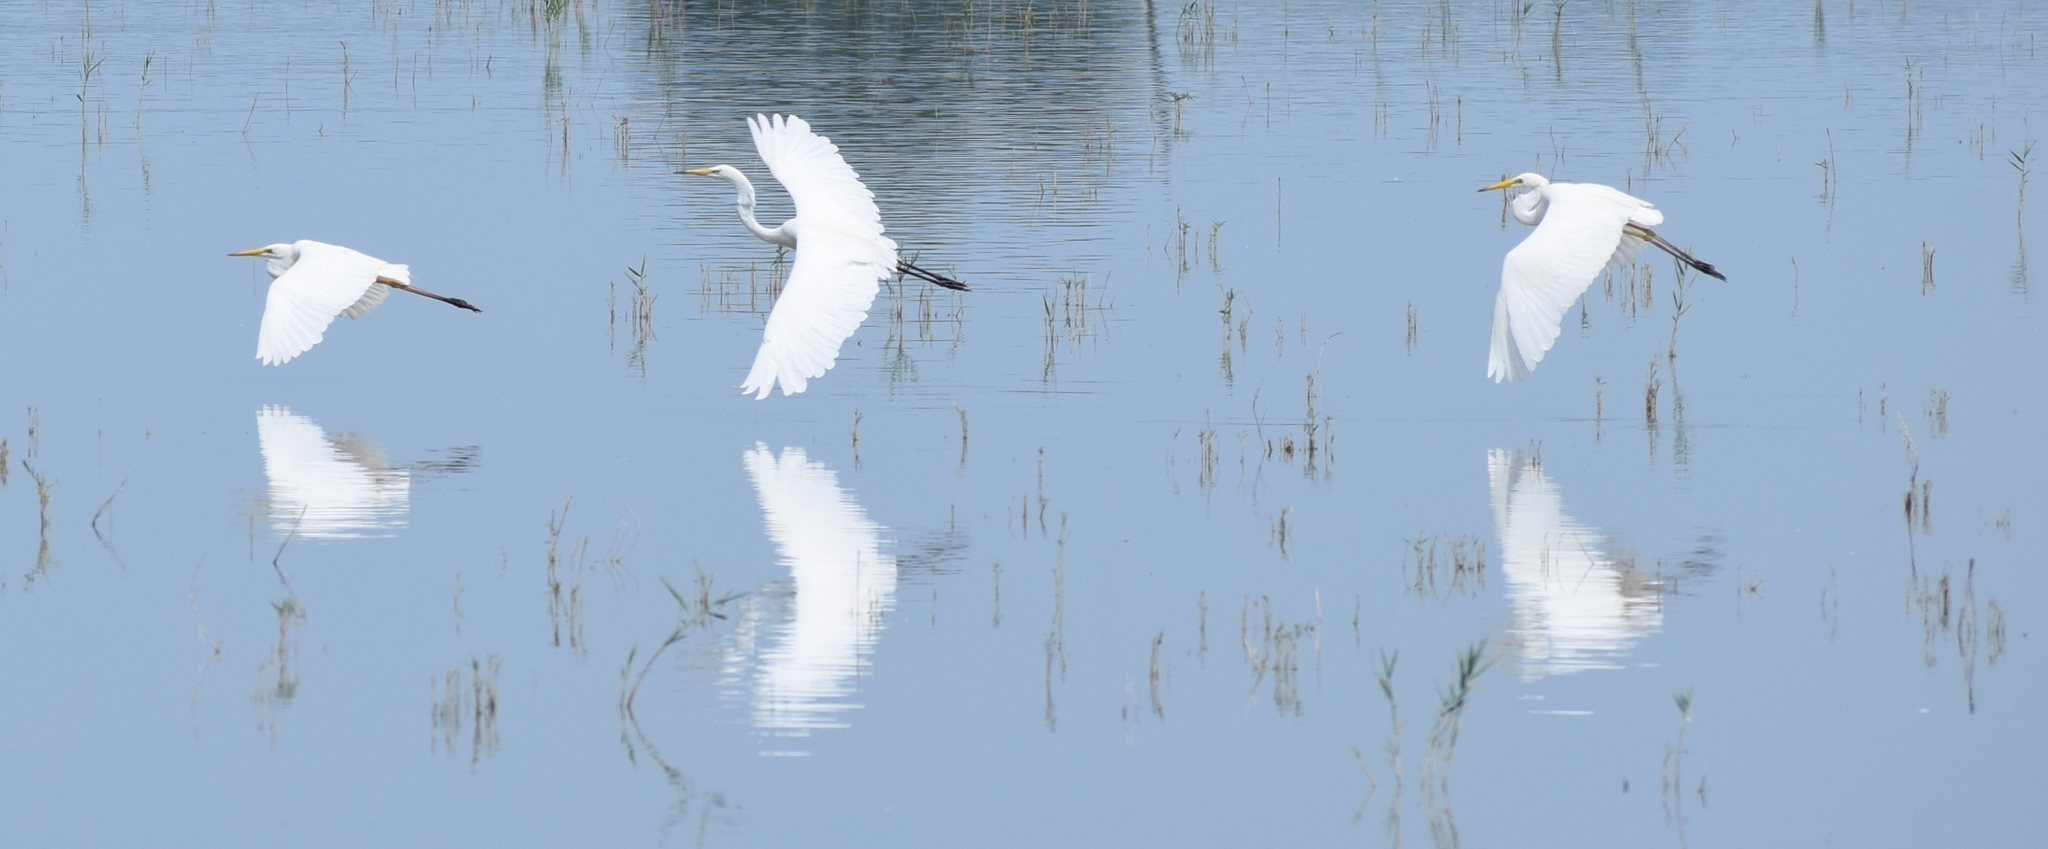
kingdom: Animalia
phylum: Chordata
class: Aves
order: Pelecaniformes
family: Ardeidae
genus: Ardea
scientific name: Ardea alba
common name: Great egret
